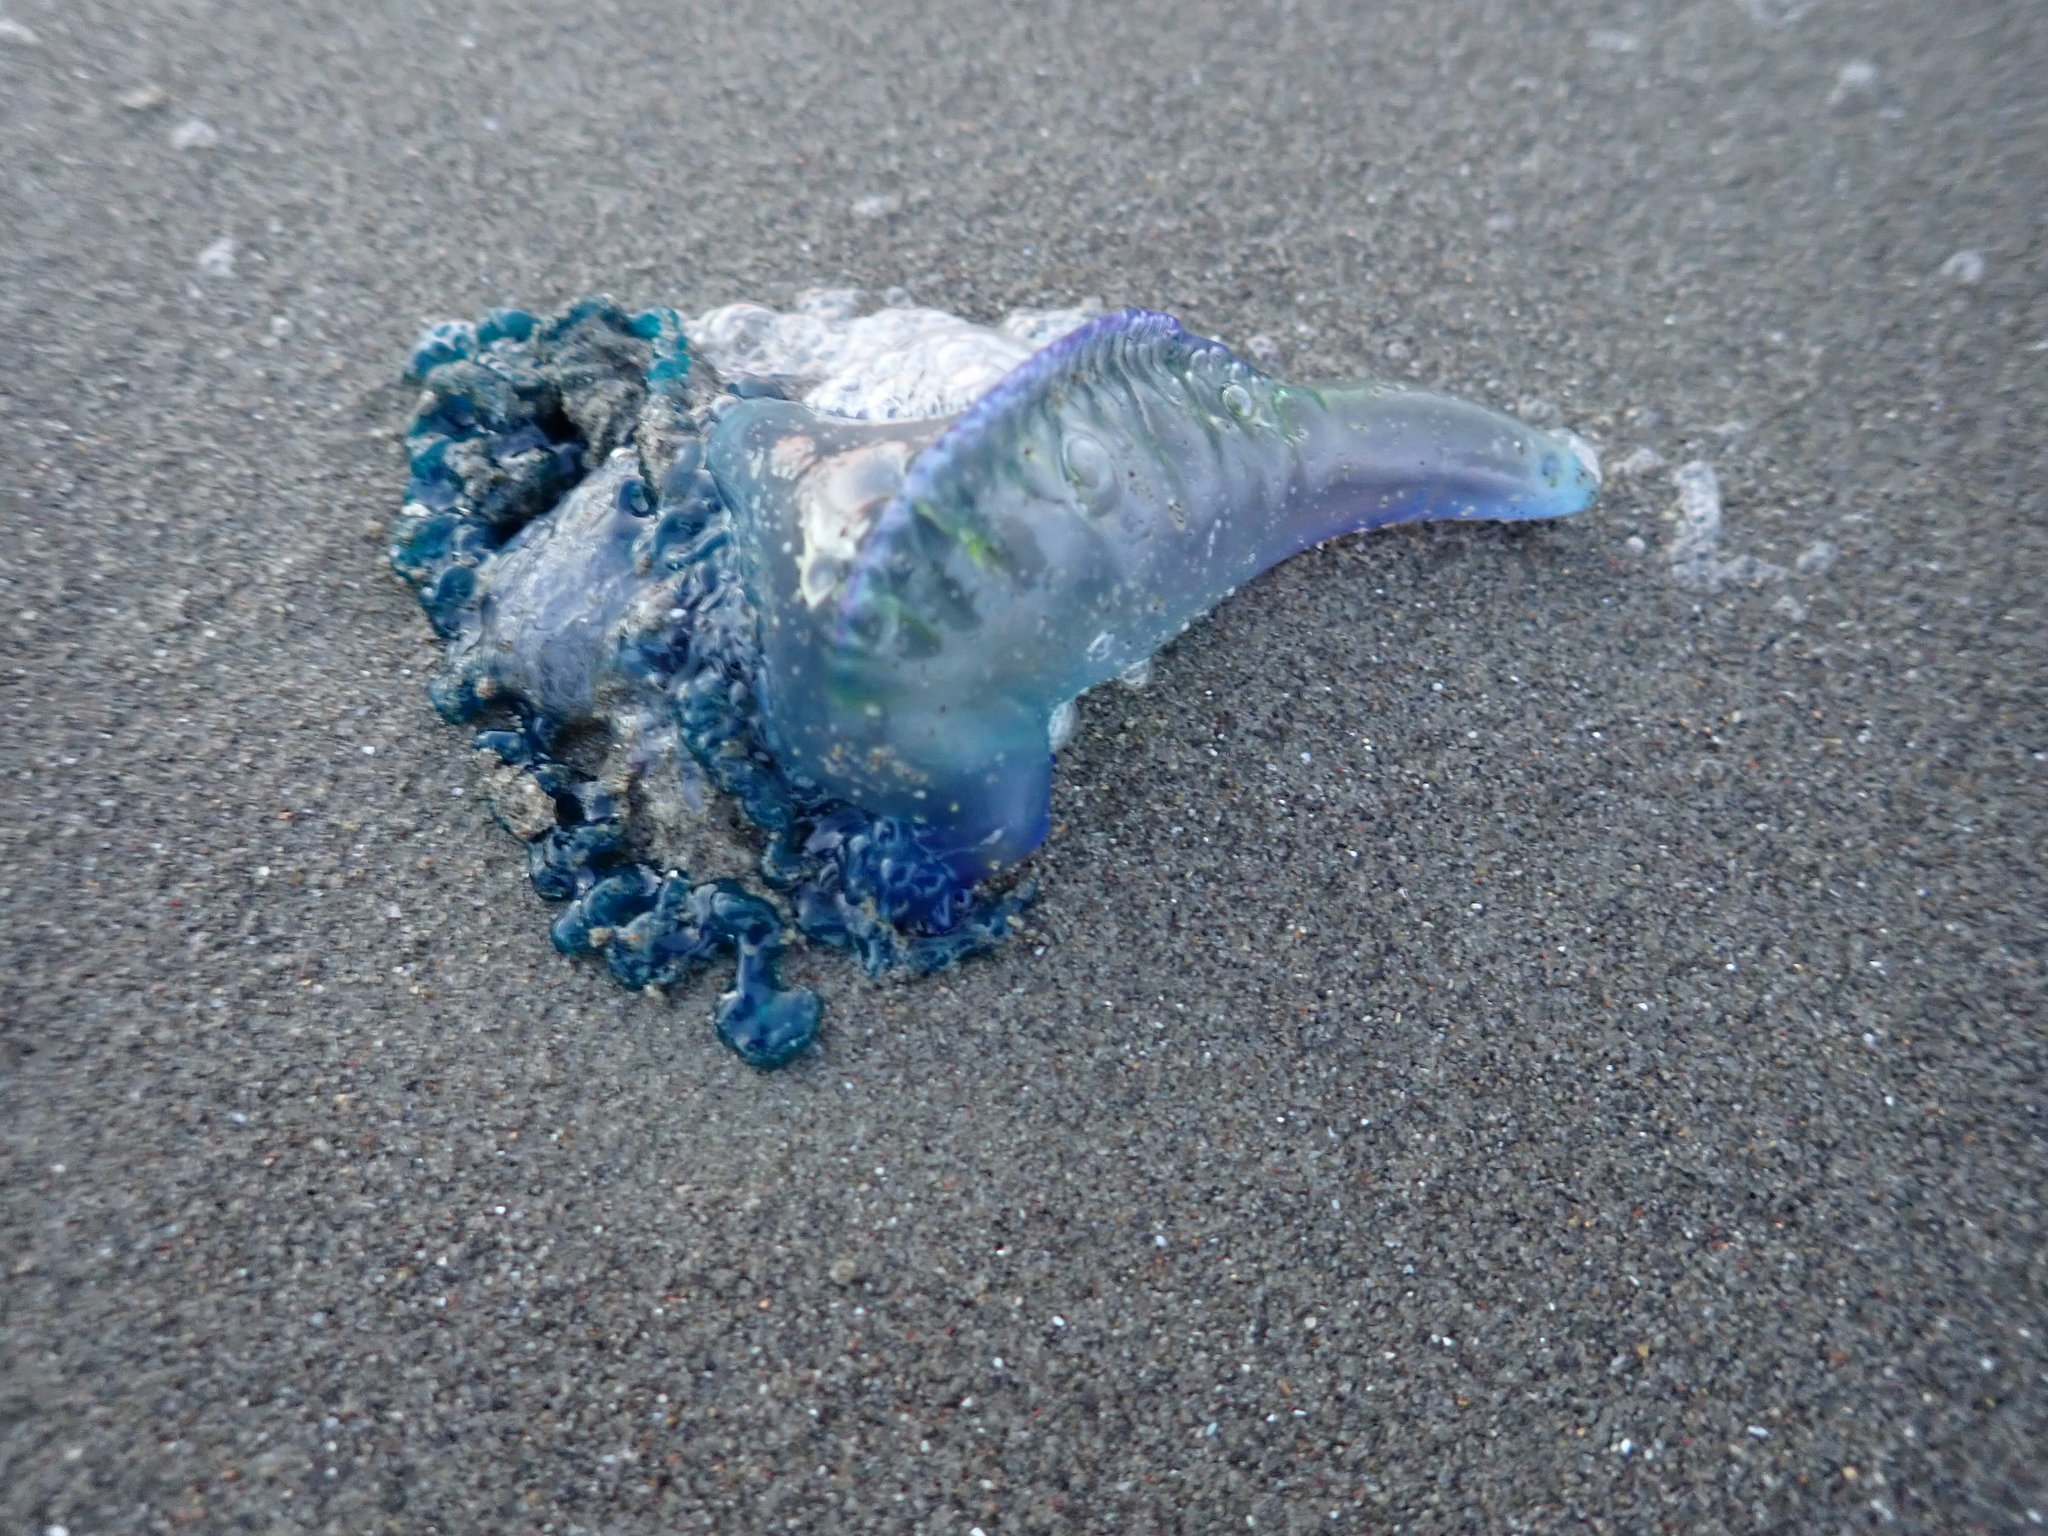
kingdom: Animalia
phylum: Cnidaria
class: Hydrozoa
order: Siphonophorae
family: Physaliidae
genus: Physalia
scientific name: Physalia physalis
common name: Portuguese man-of-war
